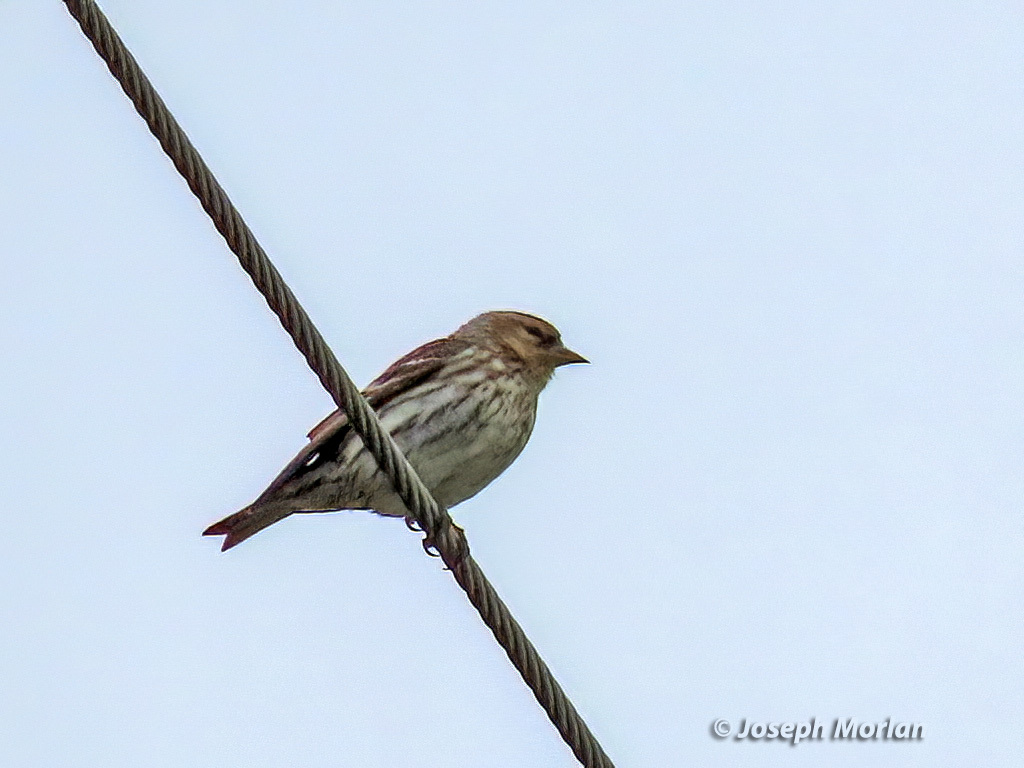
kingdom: Animalia
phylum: Chordata
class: Aves
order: Passeriformes
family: Fringillidae
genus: Spinus
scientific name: Spinus pinus
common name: Pine siskin
